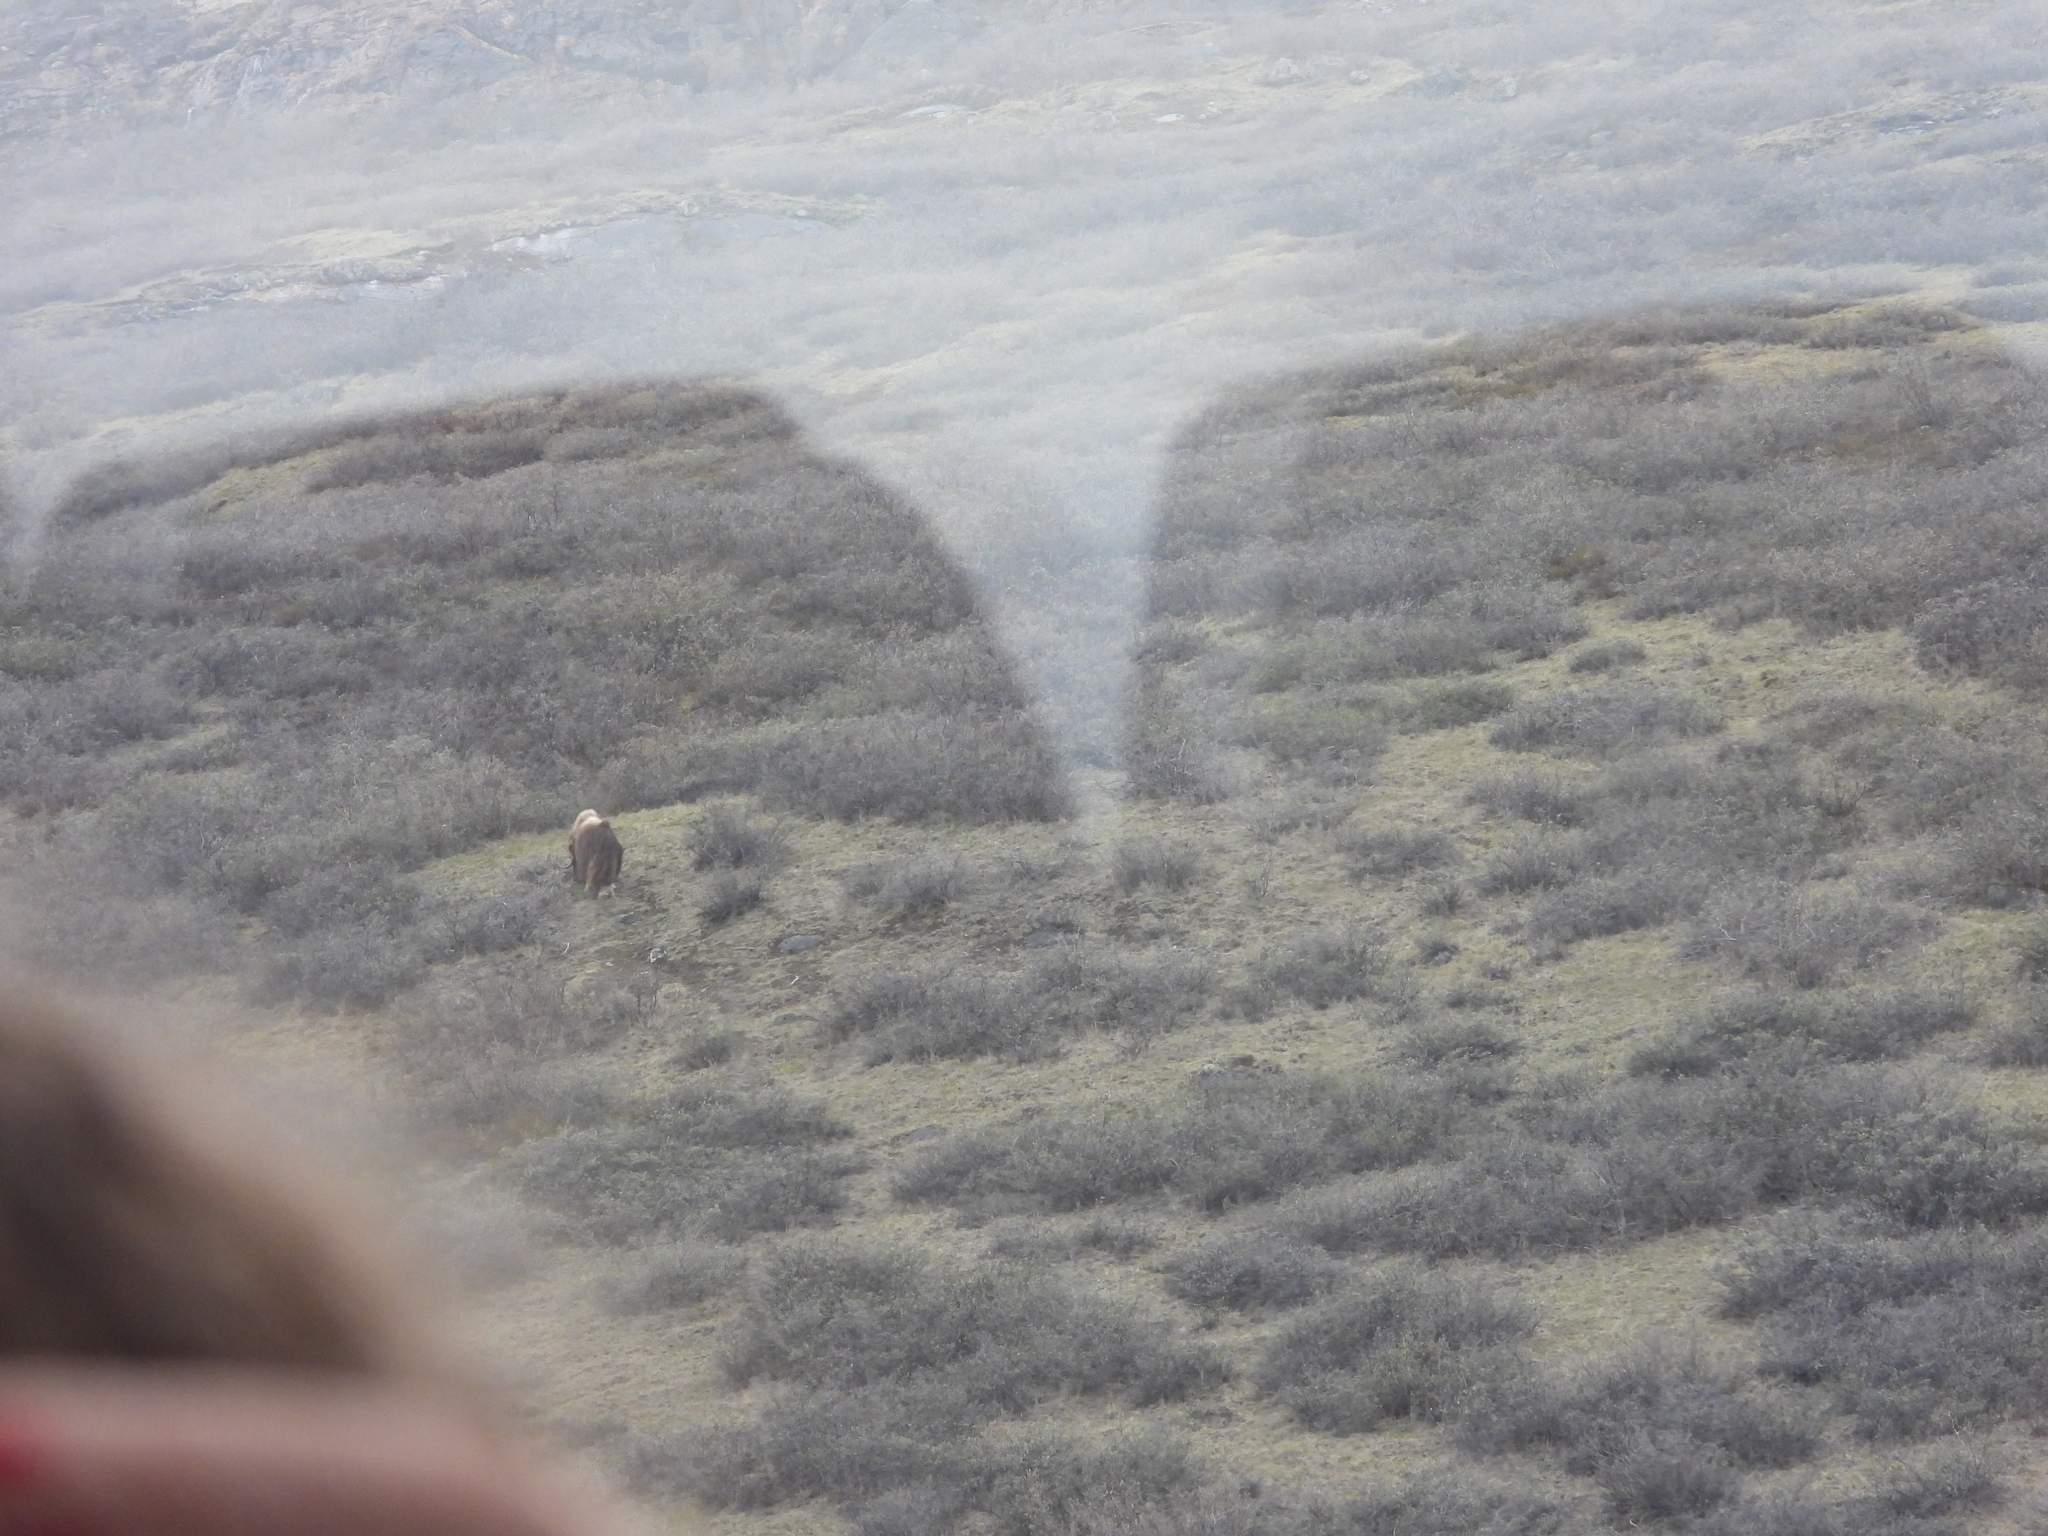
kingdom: Animalia
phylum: Chordata
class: Mammalia
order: Artiodactyla
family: Bovidae
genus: Ovibos
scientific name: Ovibos moschatus
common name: Muskox
